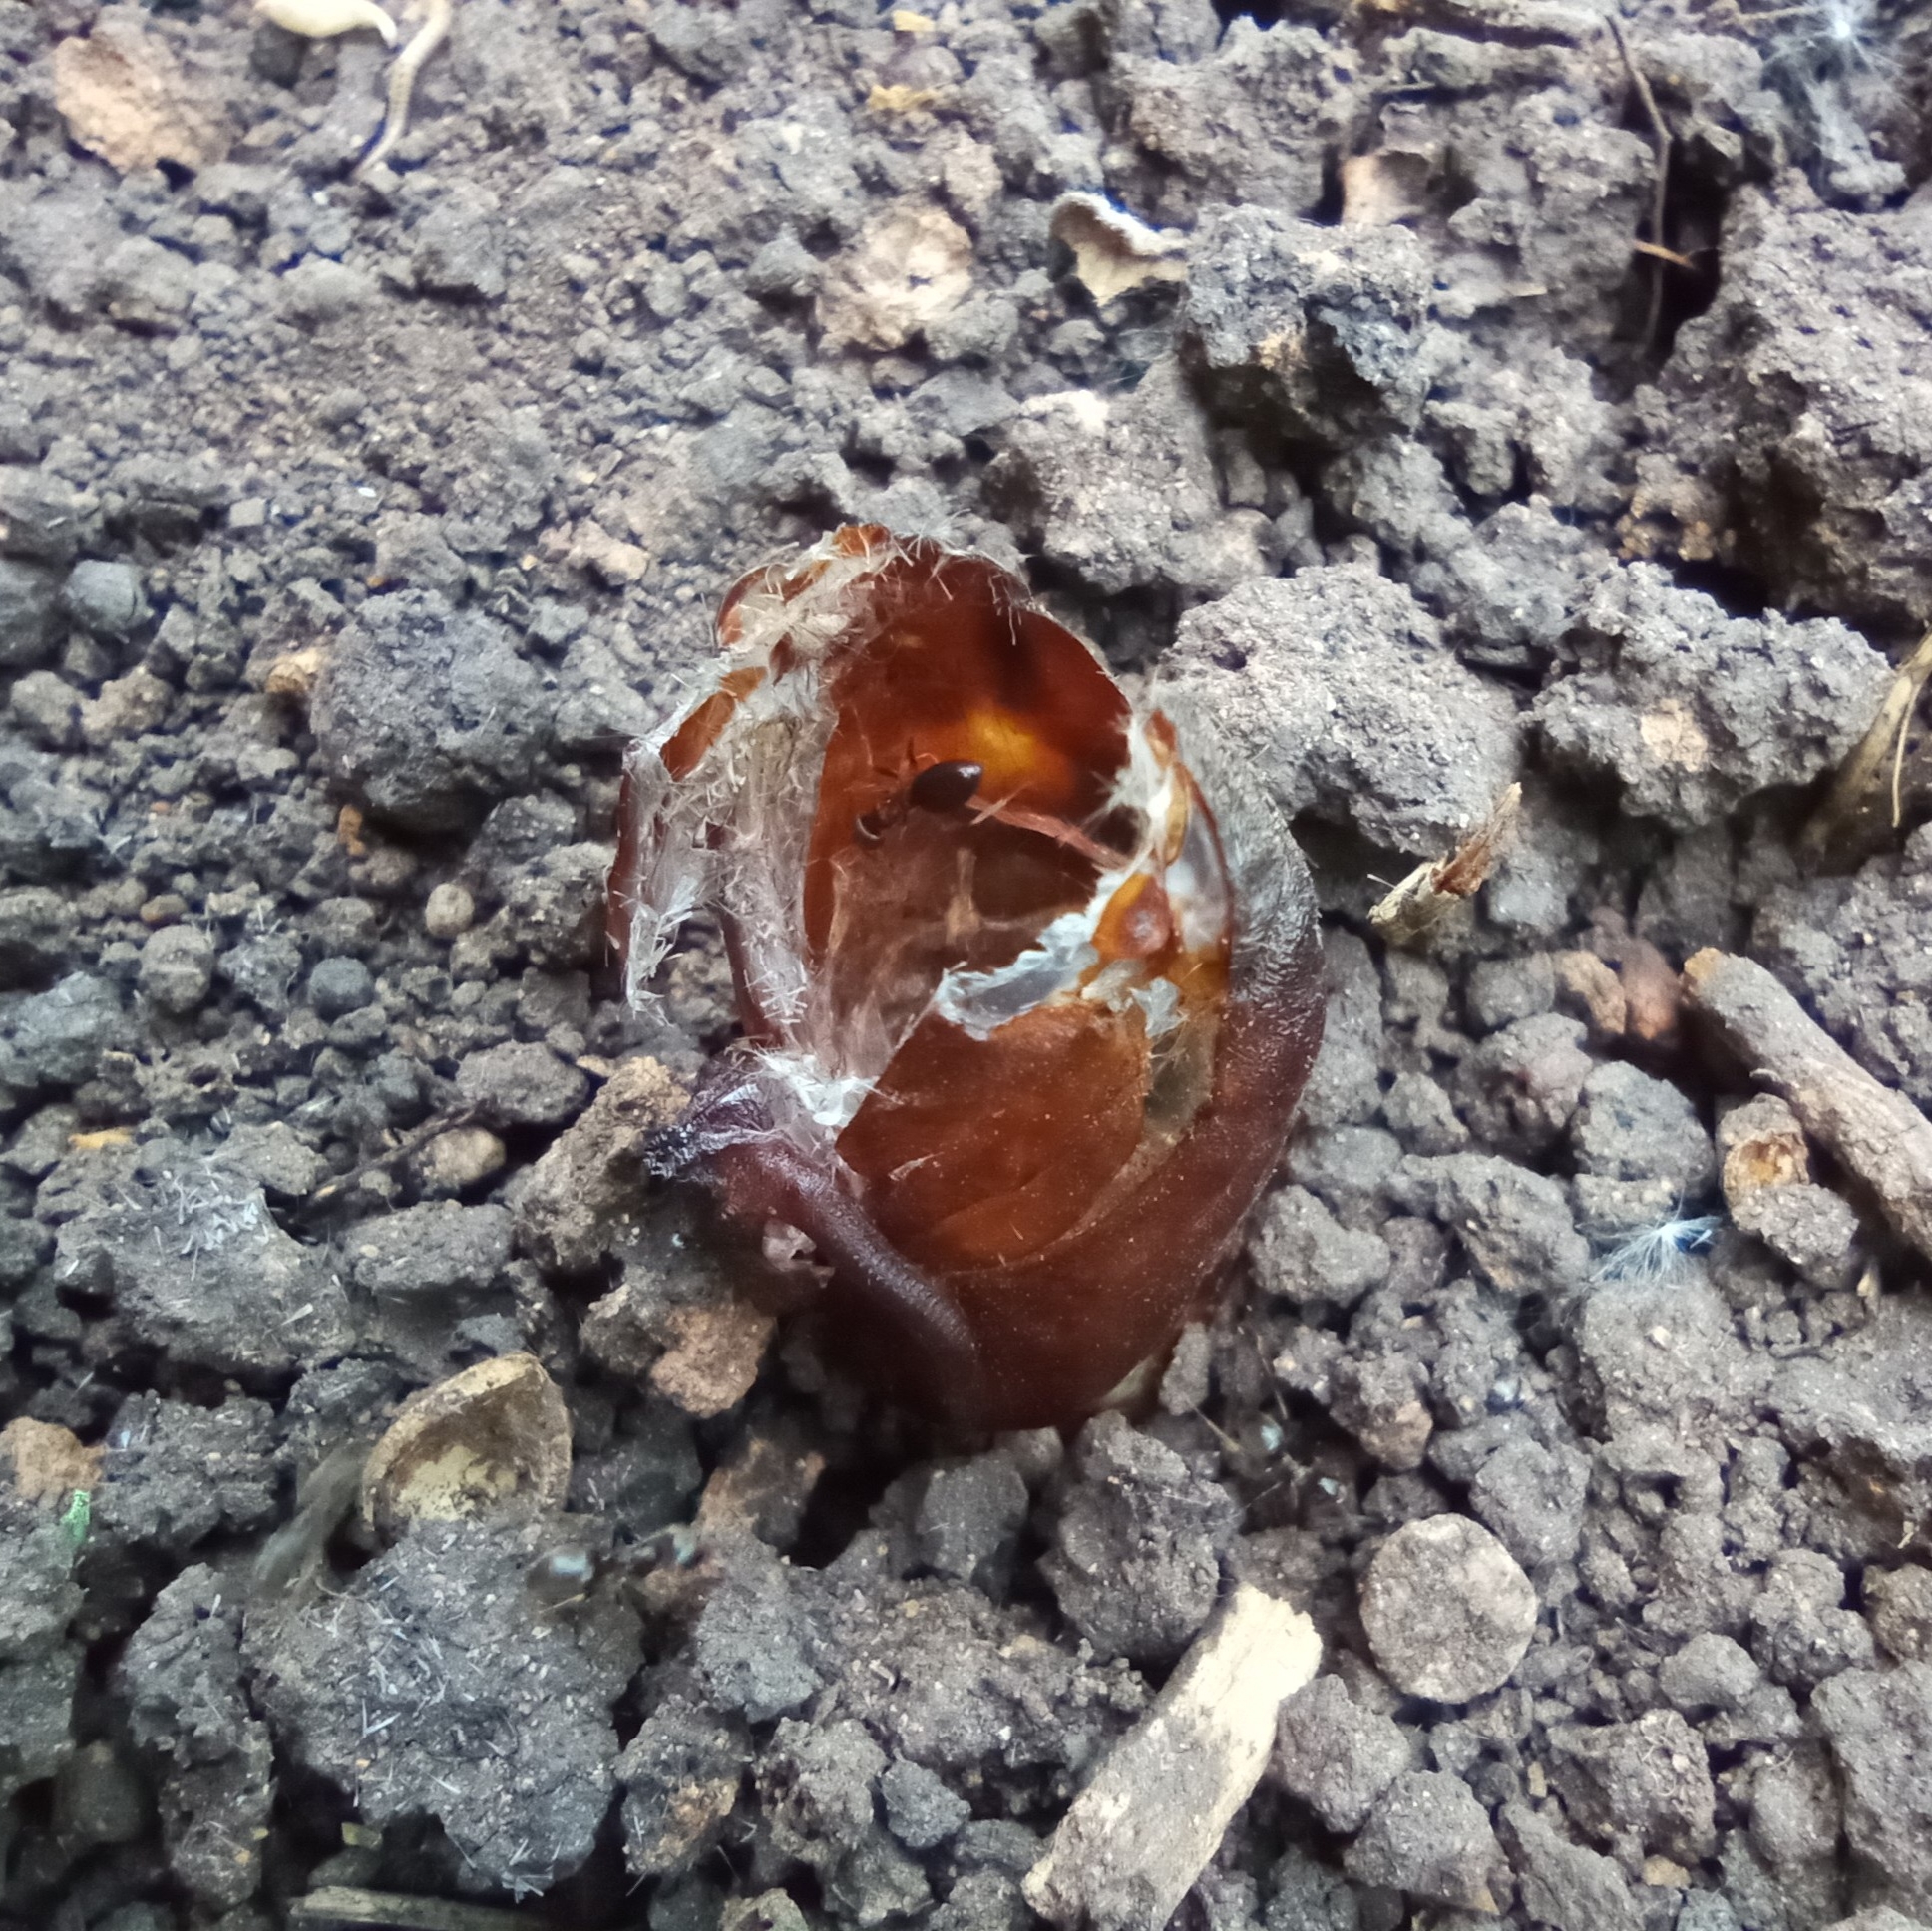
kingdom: Animalia
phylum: Arthropoda
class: Insecta
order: Lepidoptera
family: Cossidae
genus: Cossus
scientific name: Cossus cossus
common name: Goat moth
